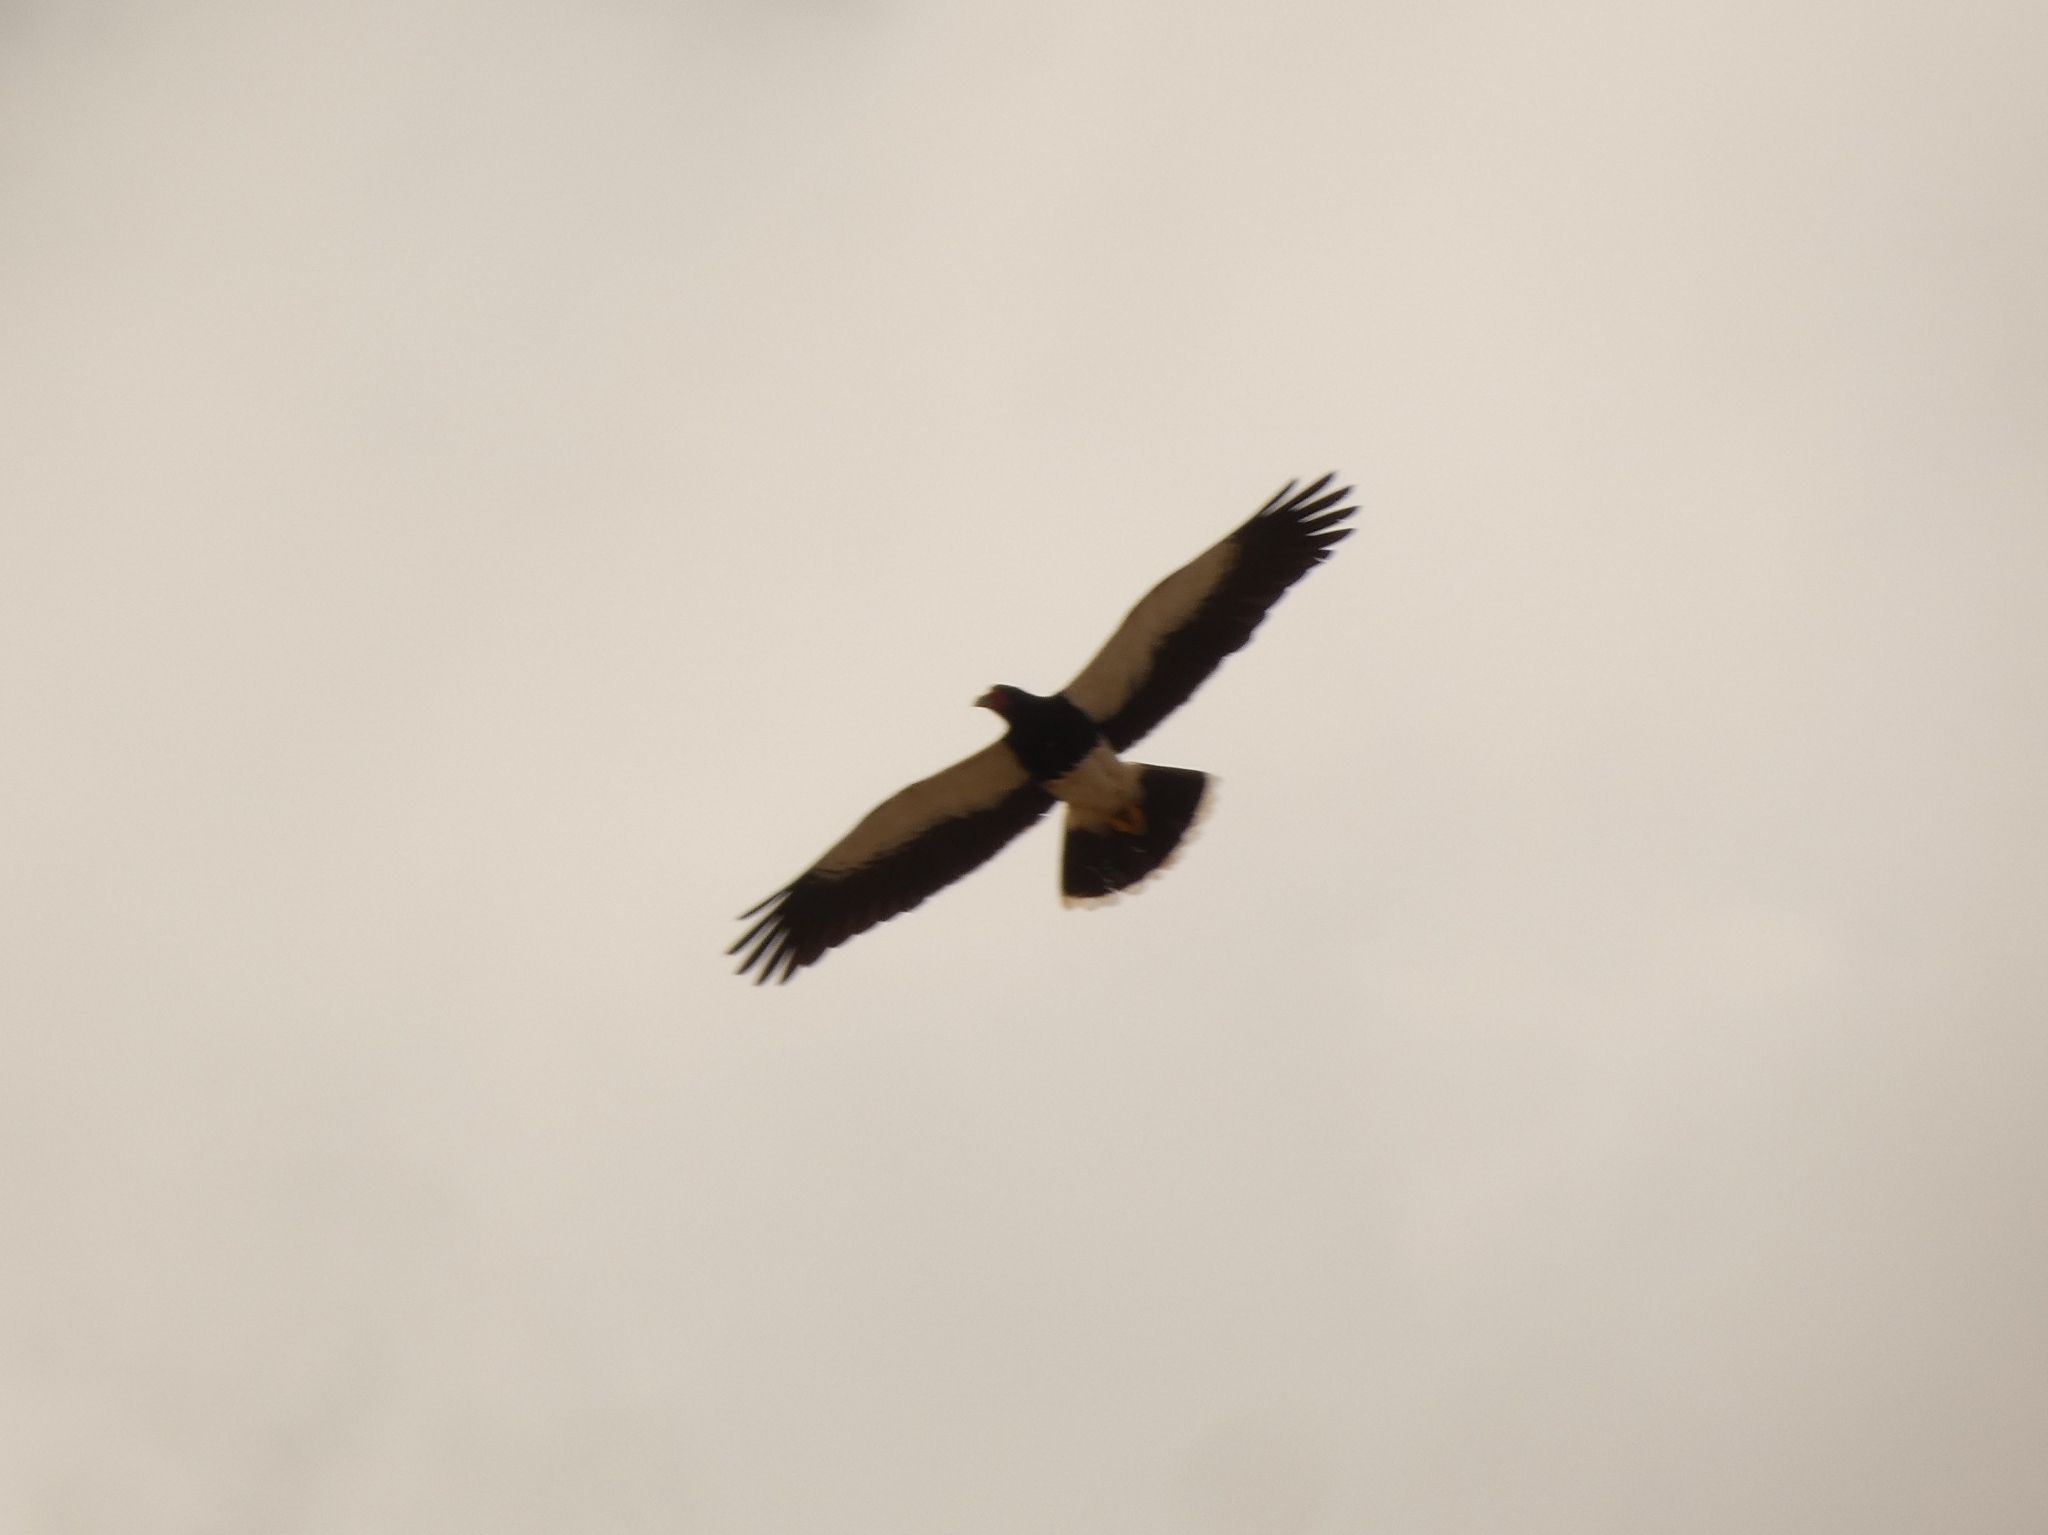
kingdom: Animalia
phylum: Chordata
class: Aves
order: Falconiformes
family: Falconidae
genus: Daptrius
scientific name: Daptrius
